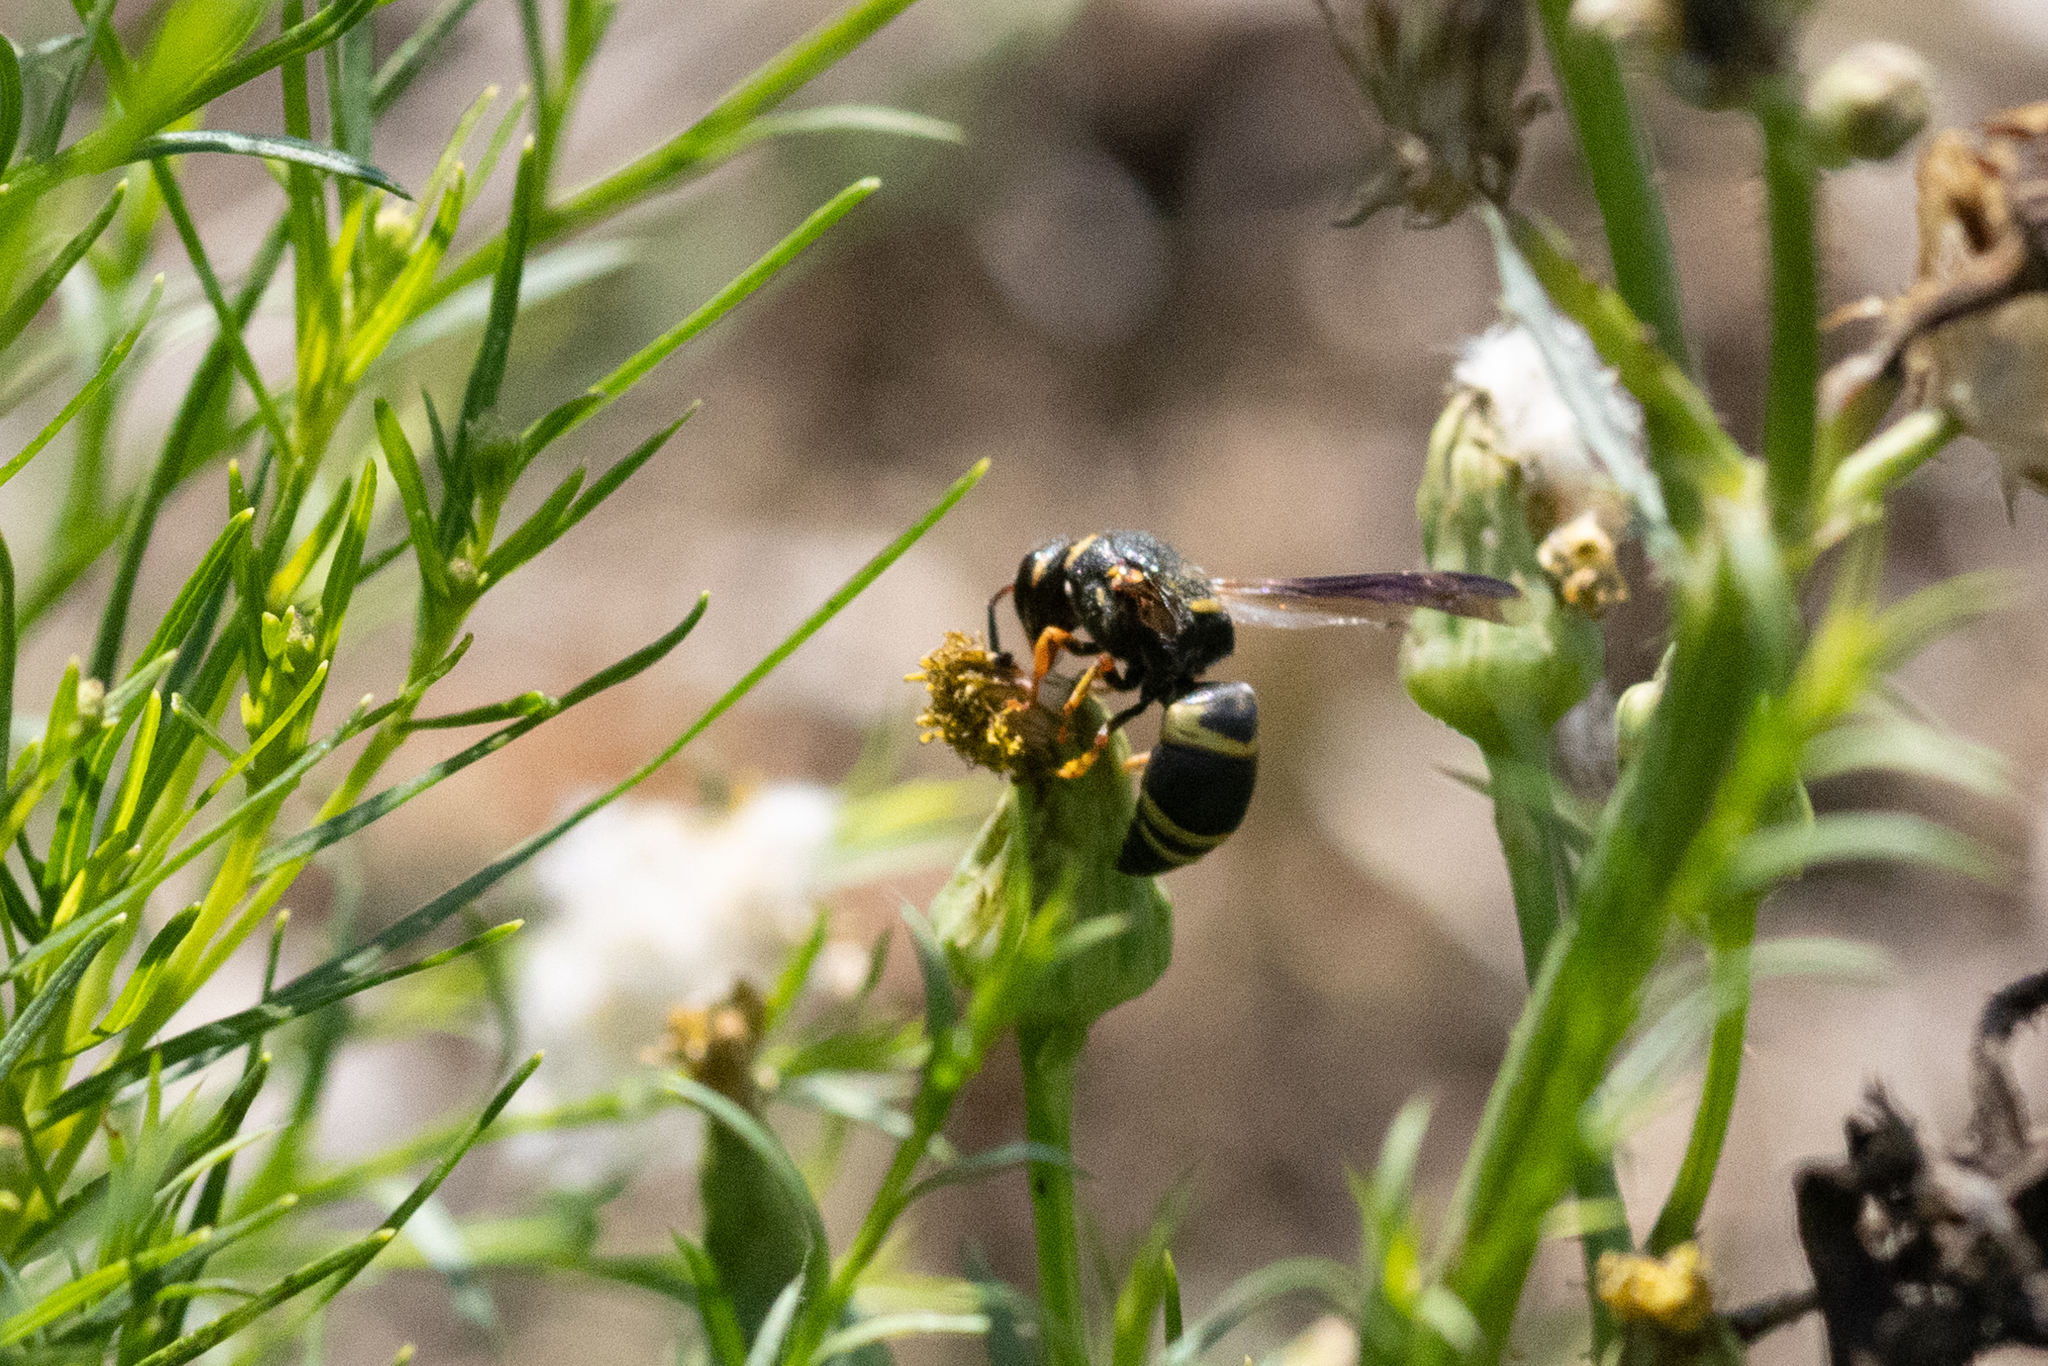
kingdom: Animalia
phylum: Arthropoda
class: Insecta
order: Hymenoptera
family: Eumenidae
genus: Euodynerus
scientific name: Euodynerus hidalgo
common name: Wasp
